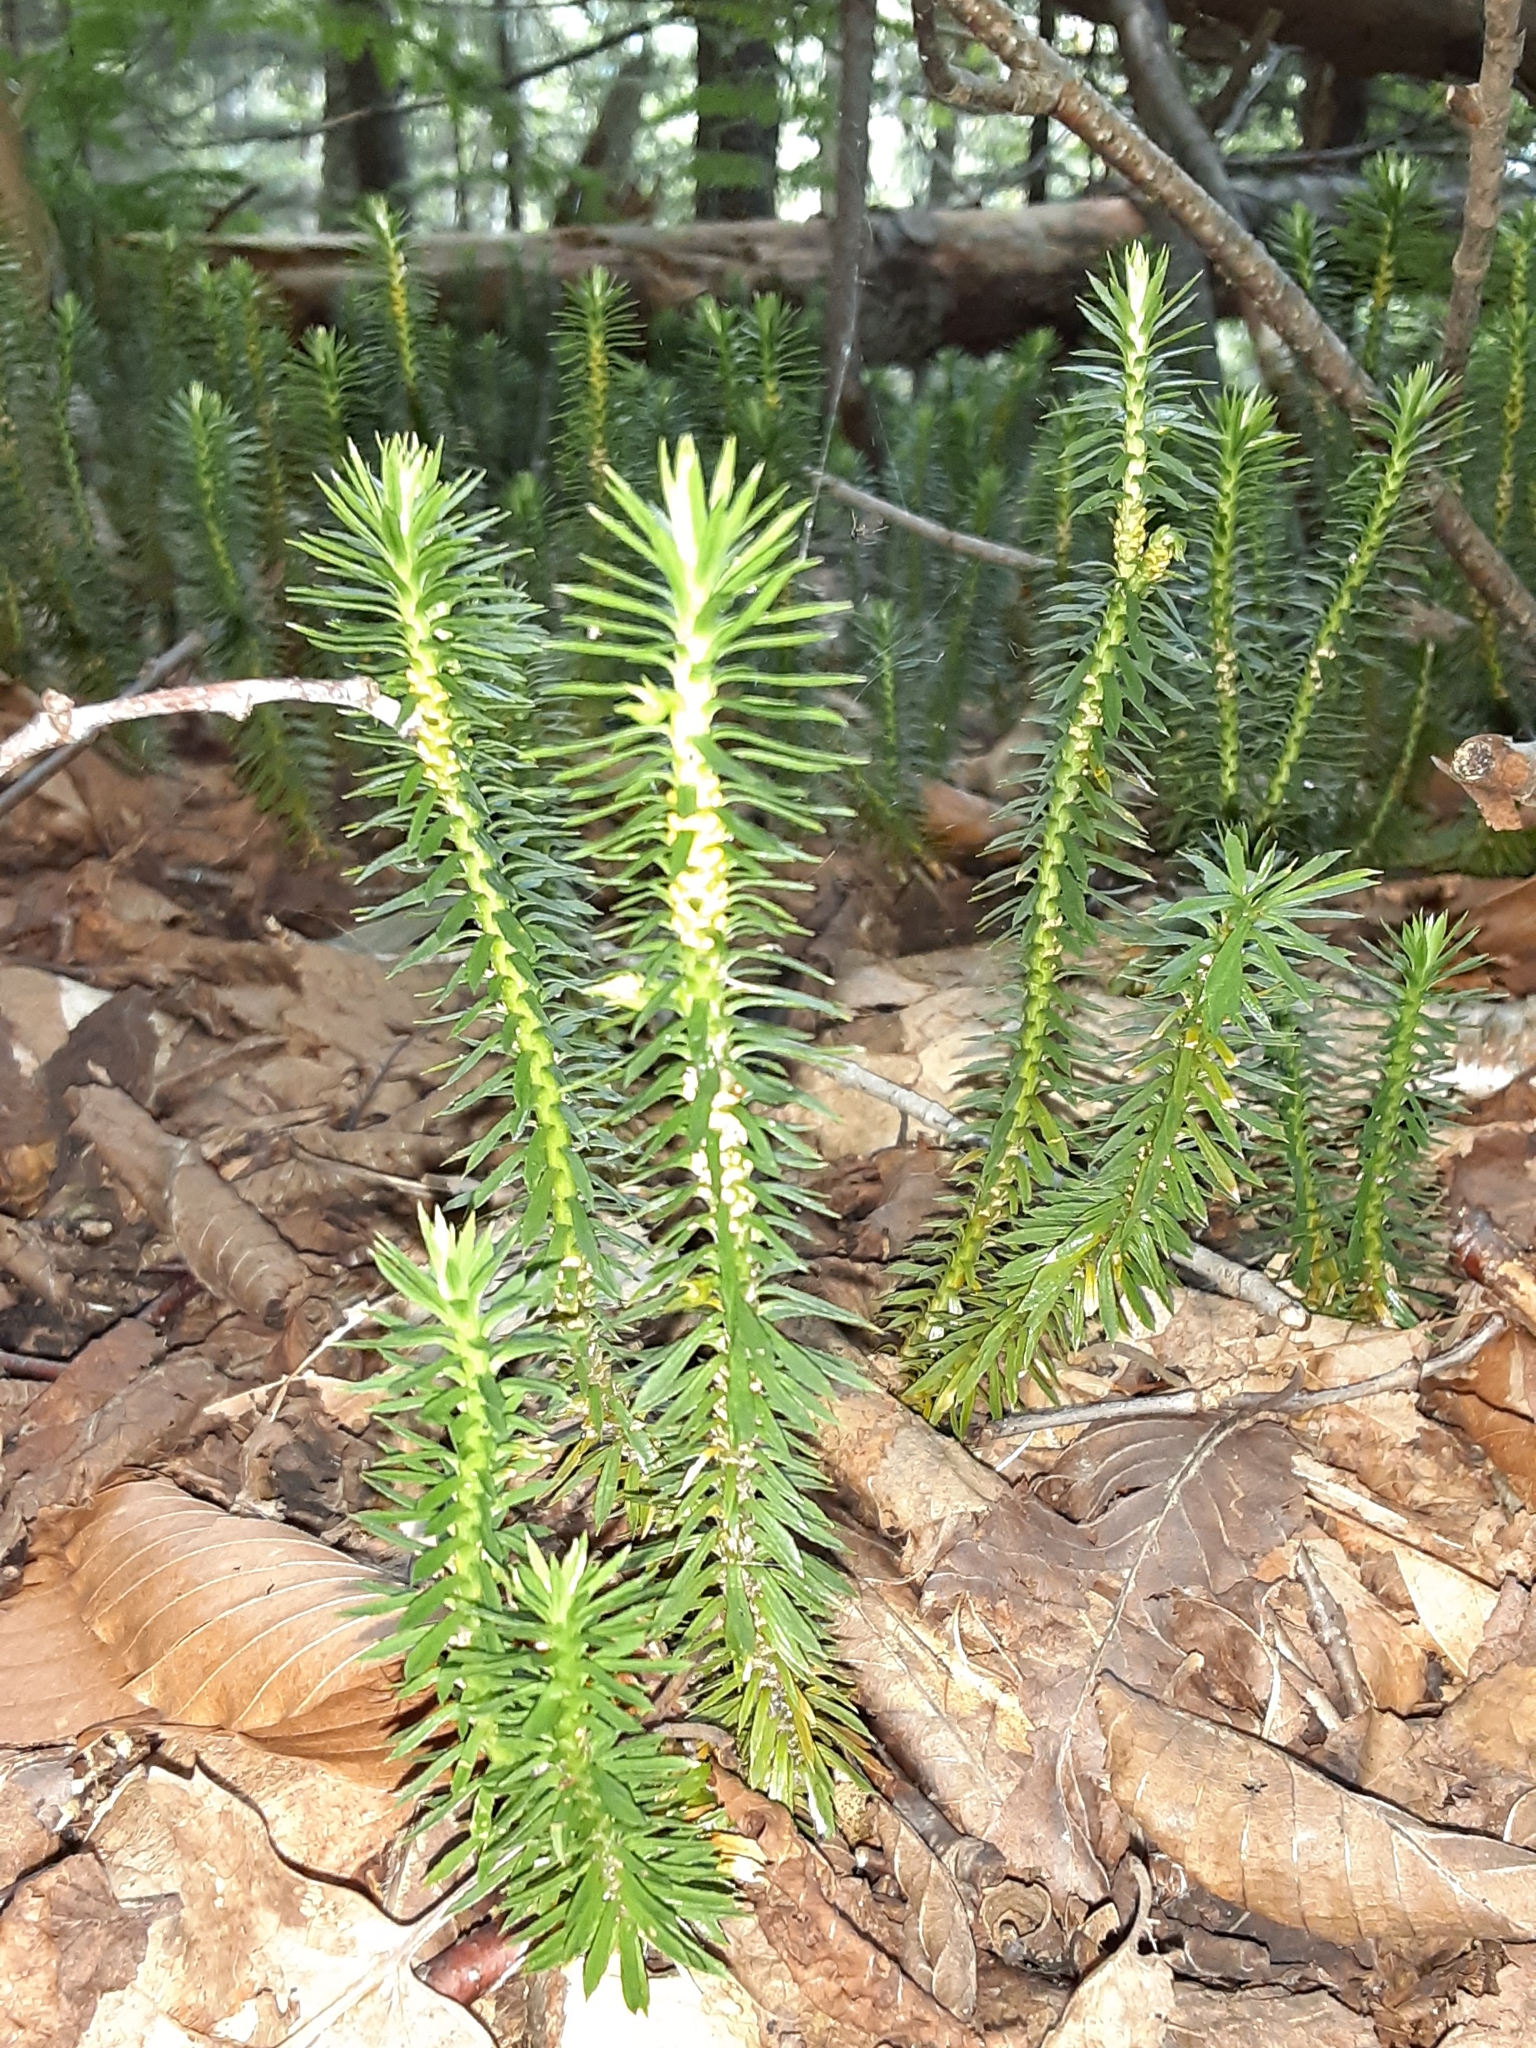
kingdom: Plantae
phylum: Tracheophyta
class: Lycopodiopsida
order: Lycopodiales
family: Lycopodiaceae
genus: Huperzia
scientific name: Huperzia lucidula
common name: Shining clubmoss
